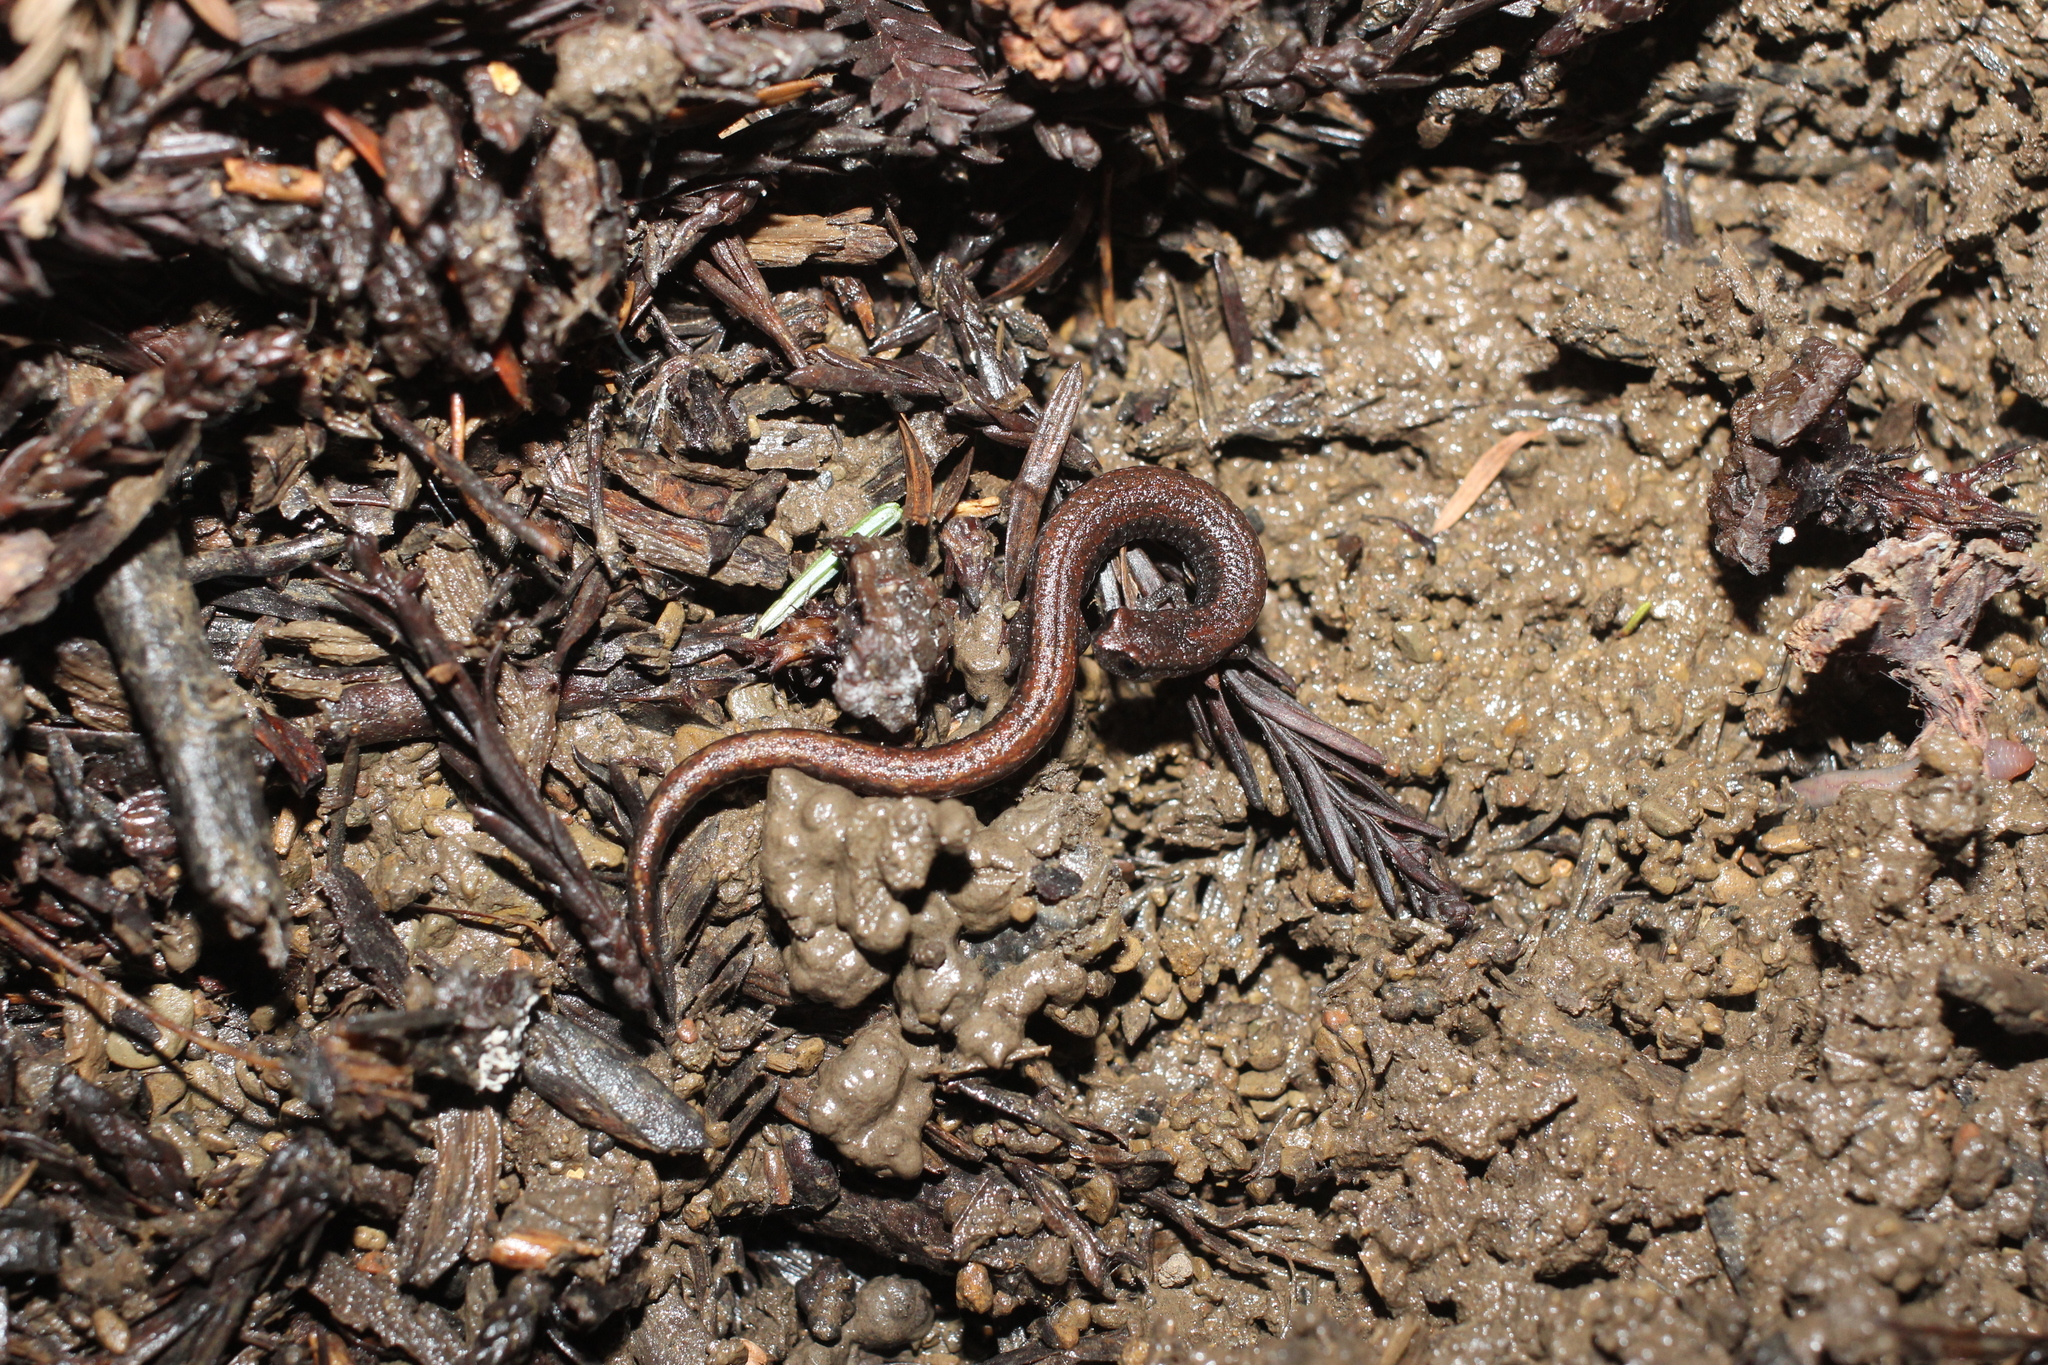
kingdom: Animalia
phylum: Chordata
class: Amphibia
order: Caudata
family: Plethodontidae
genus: Batrachoseps
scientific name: Batrachoseps attenuatus
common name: California slender salamander
